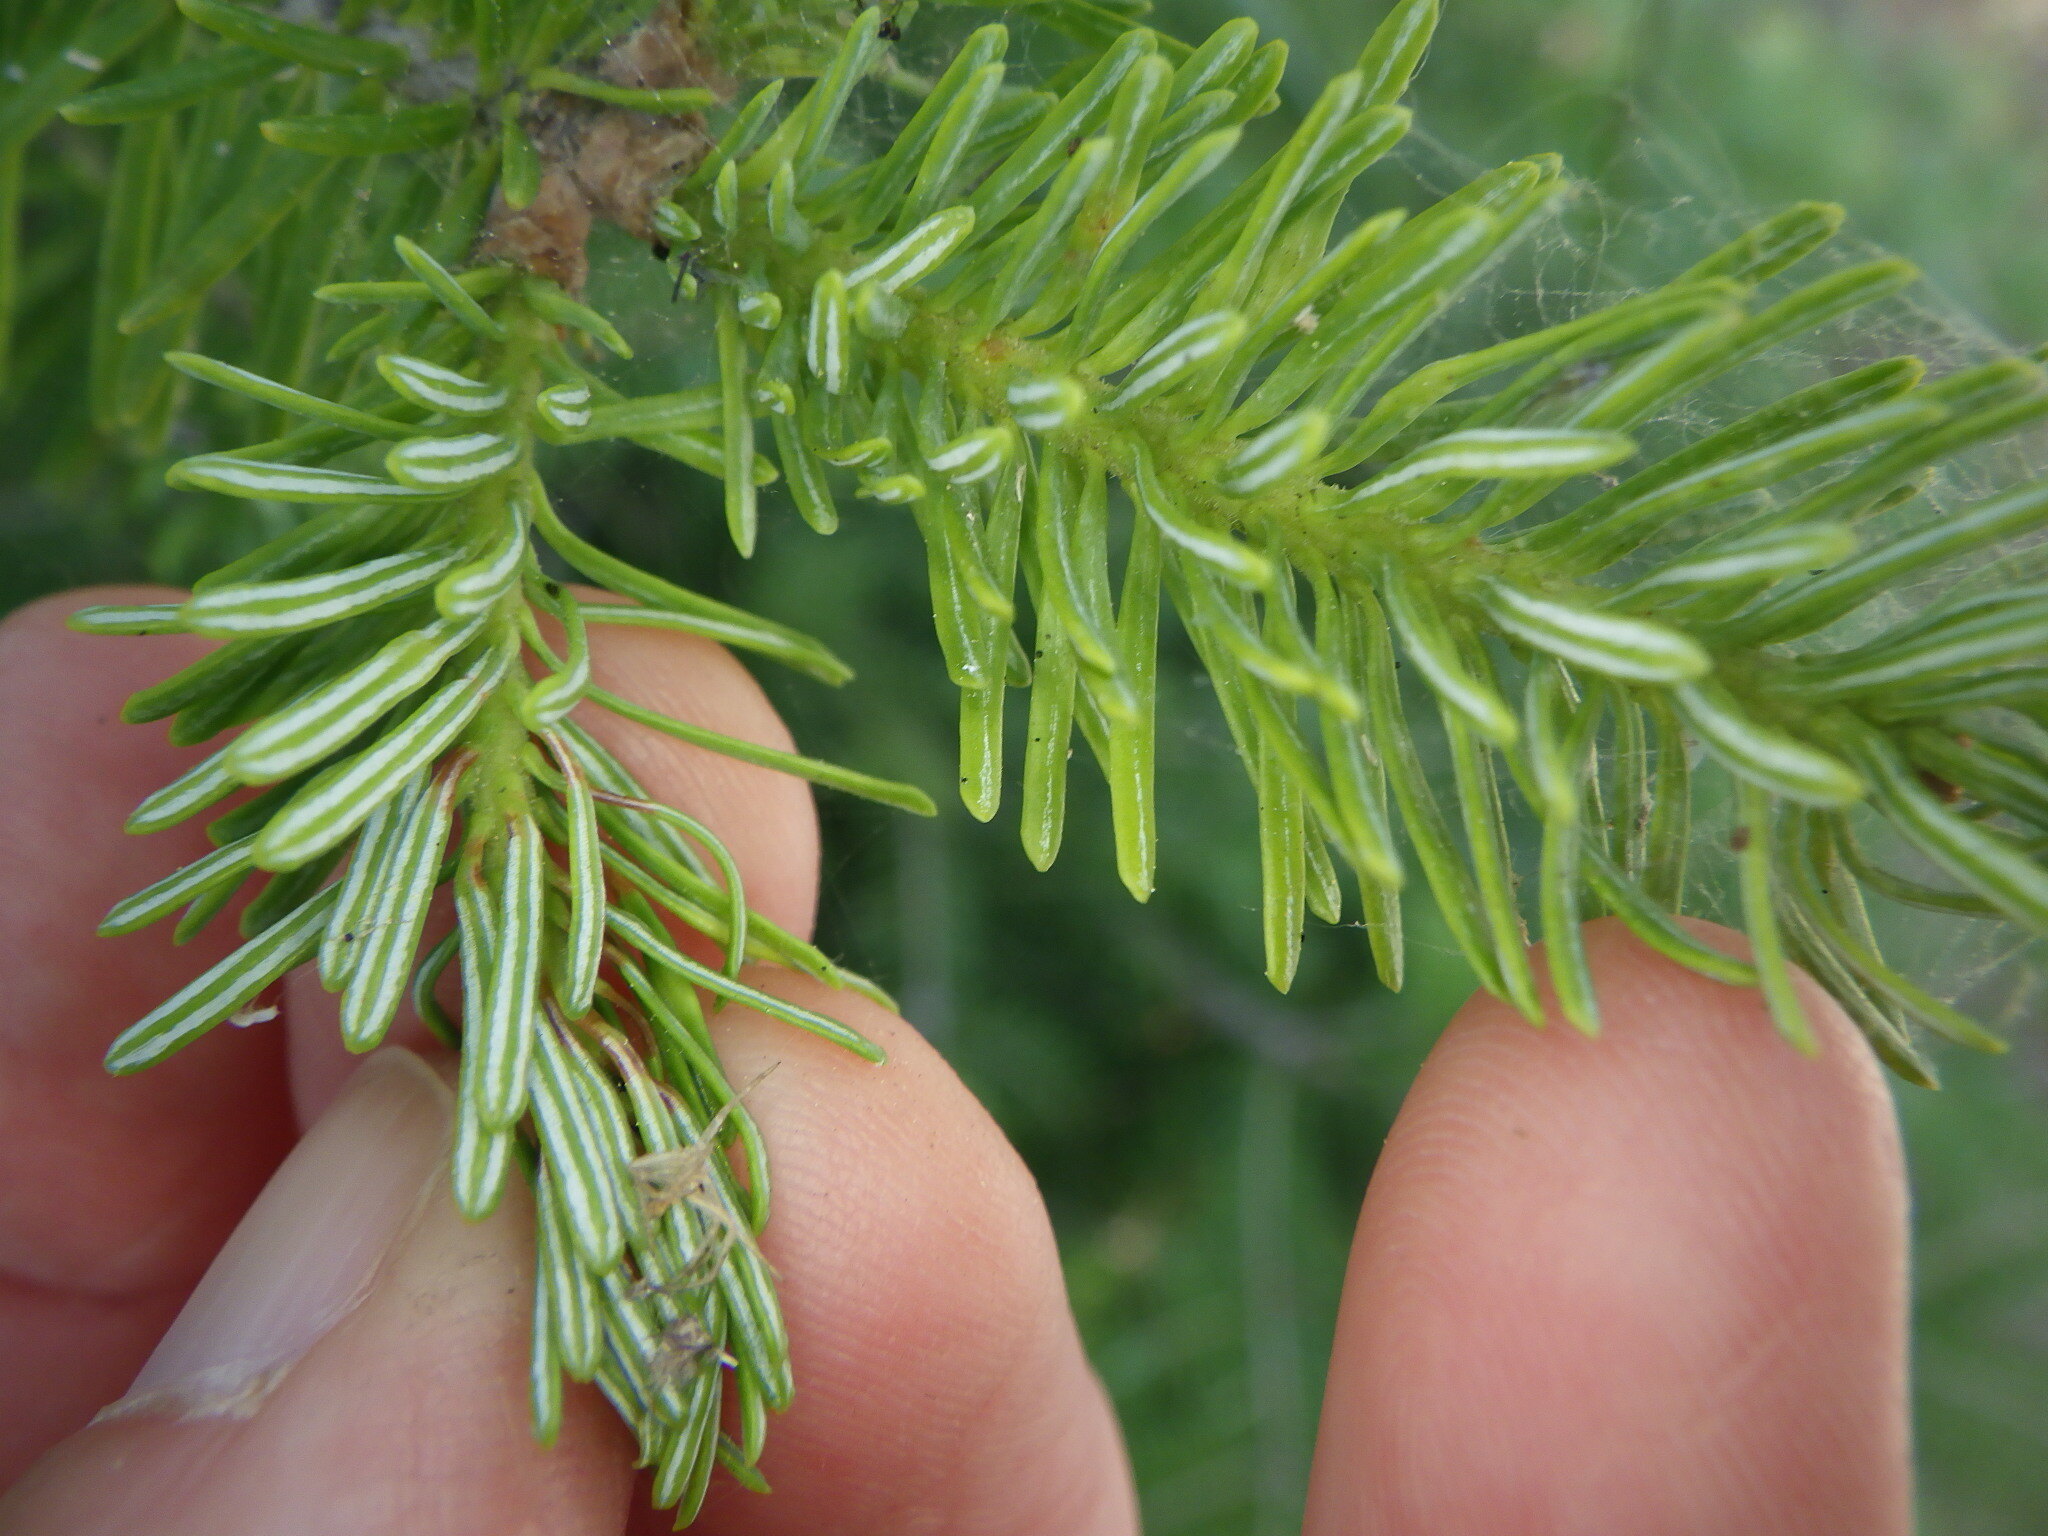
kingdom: Plantae
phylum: Tracheophyta
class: Pinopsida
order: Pinales
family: Pinaceae
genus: Abies
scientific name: Abies balsamea
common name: Balsam fir
